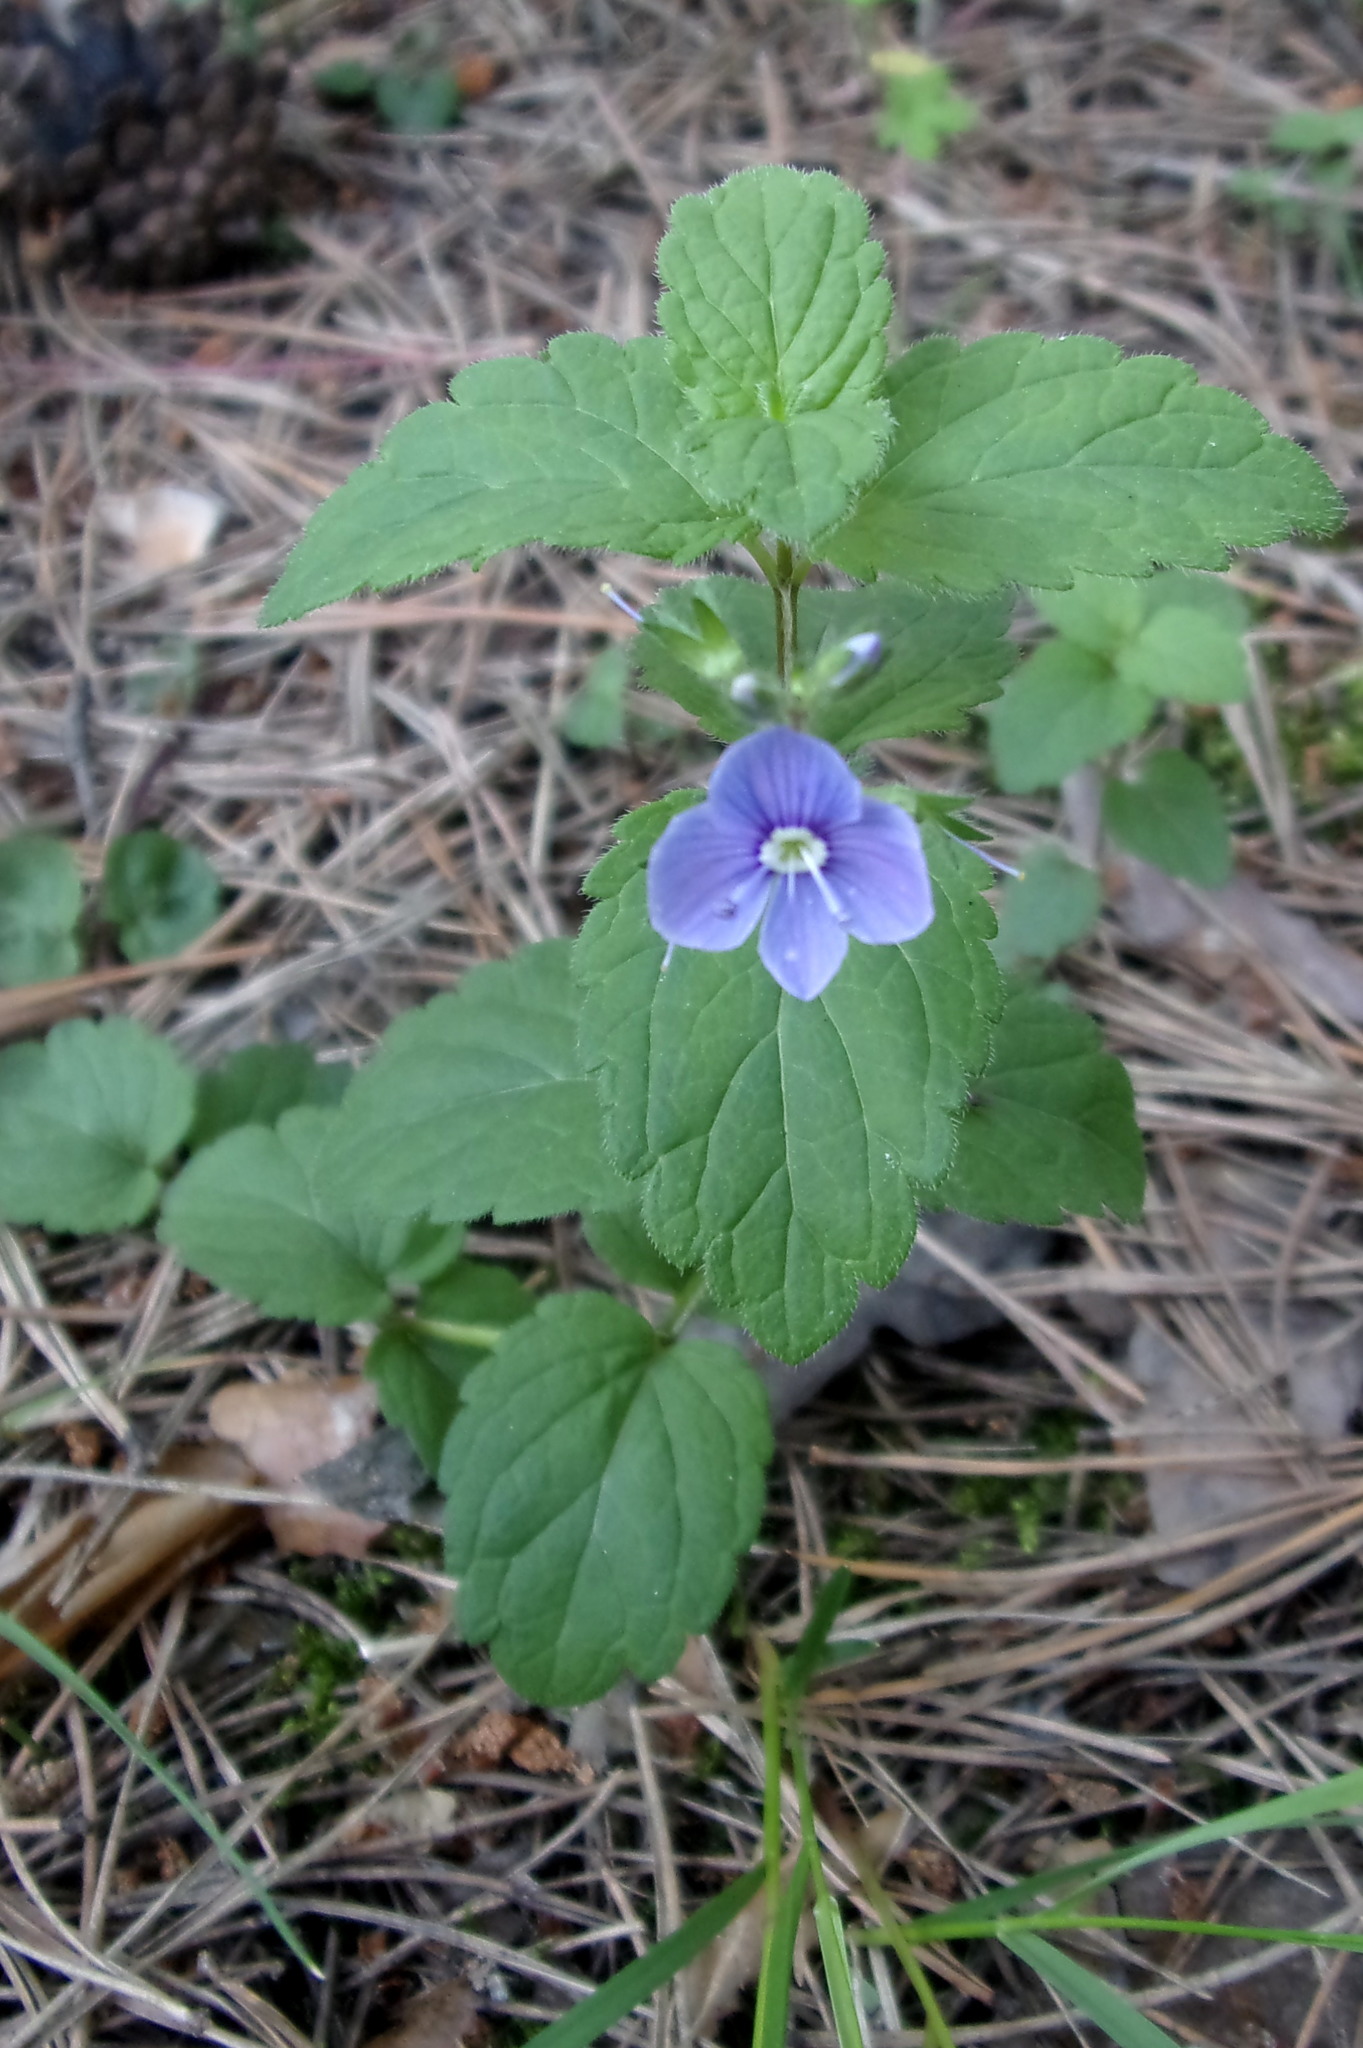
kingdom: Plantae
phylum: Tracheophyta
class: Magnoliopsida
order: Lamiales
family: Plantaginaceae
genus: Veronica
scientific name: Veronica chamaedrys
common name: Germander speedwell
